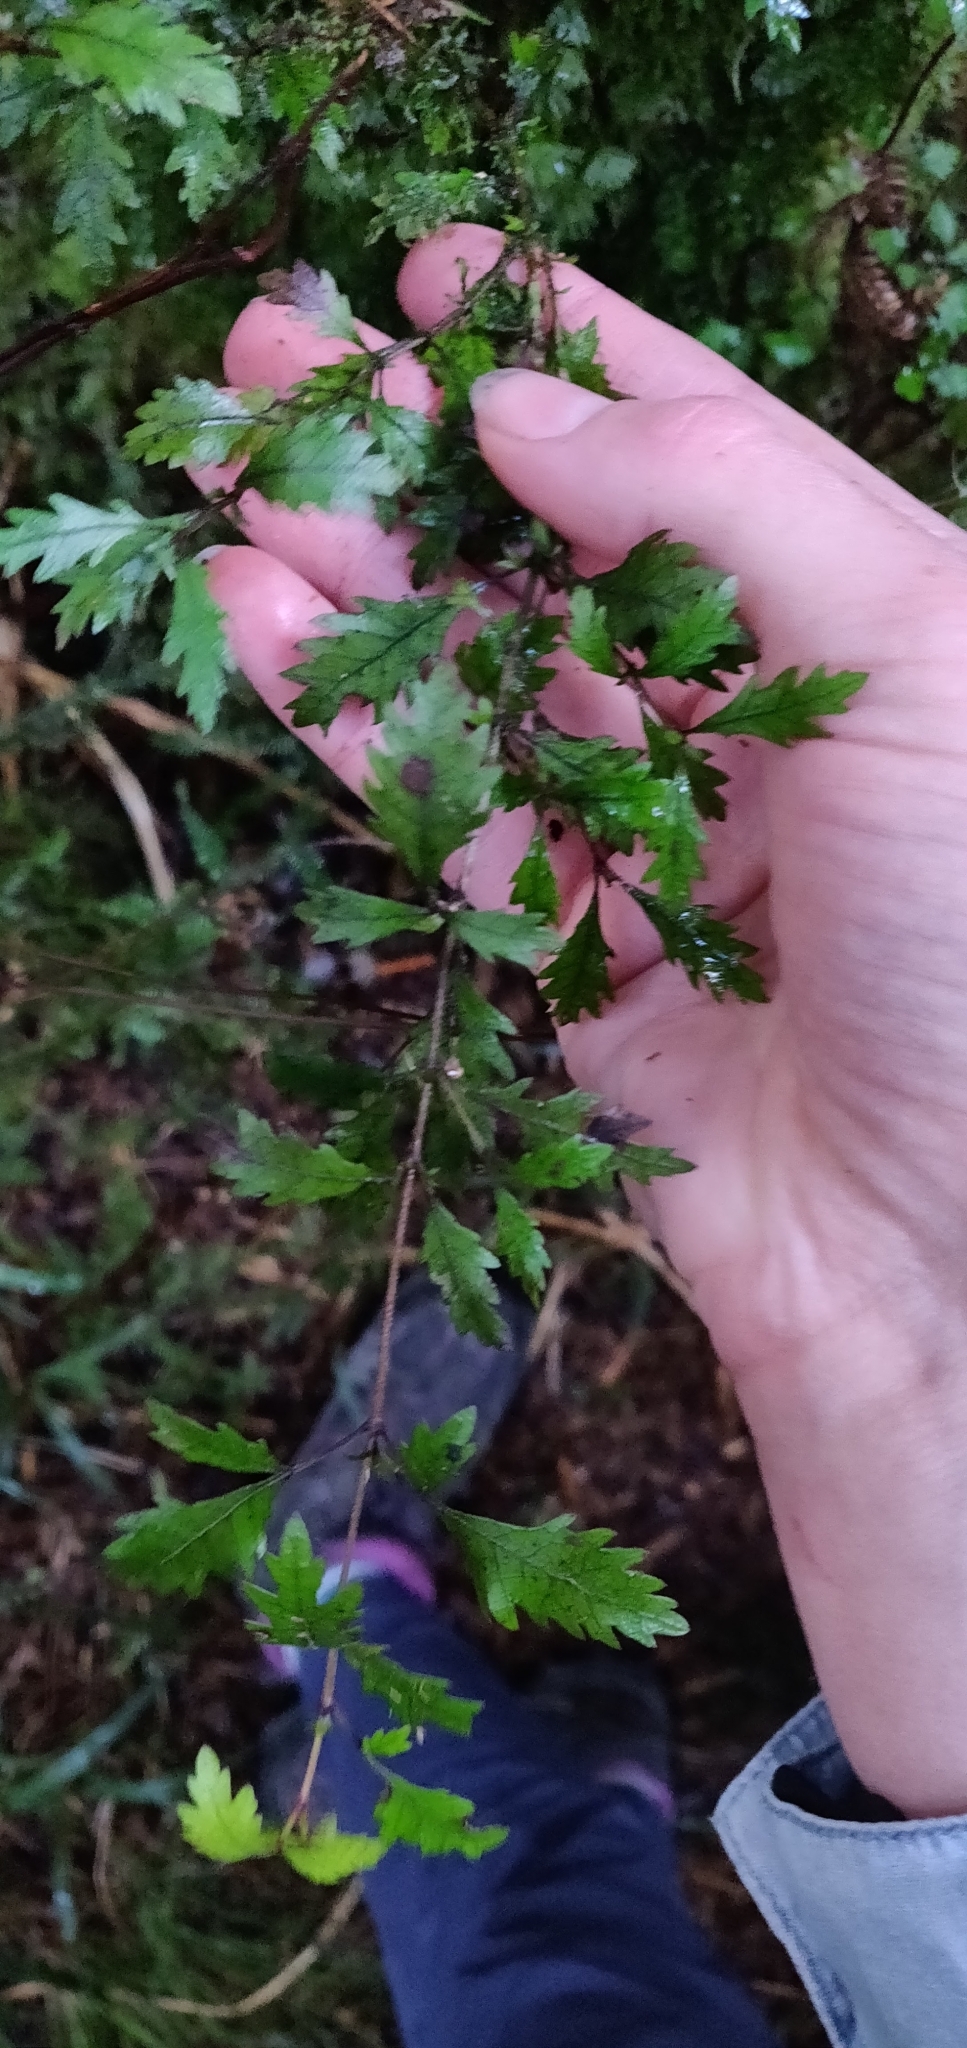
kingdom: Plantae
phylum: Tracheophyta
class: Magnoliopsida
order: Oxalidales
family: Cunoniaceae
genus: Pterophylla
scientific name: Pterophylla racemosa
